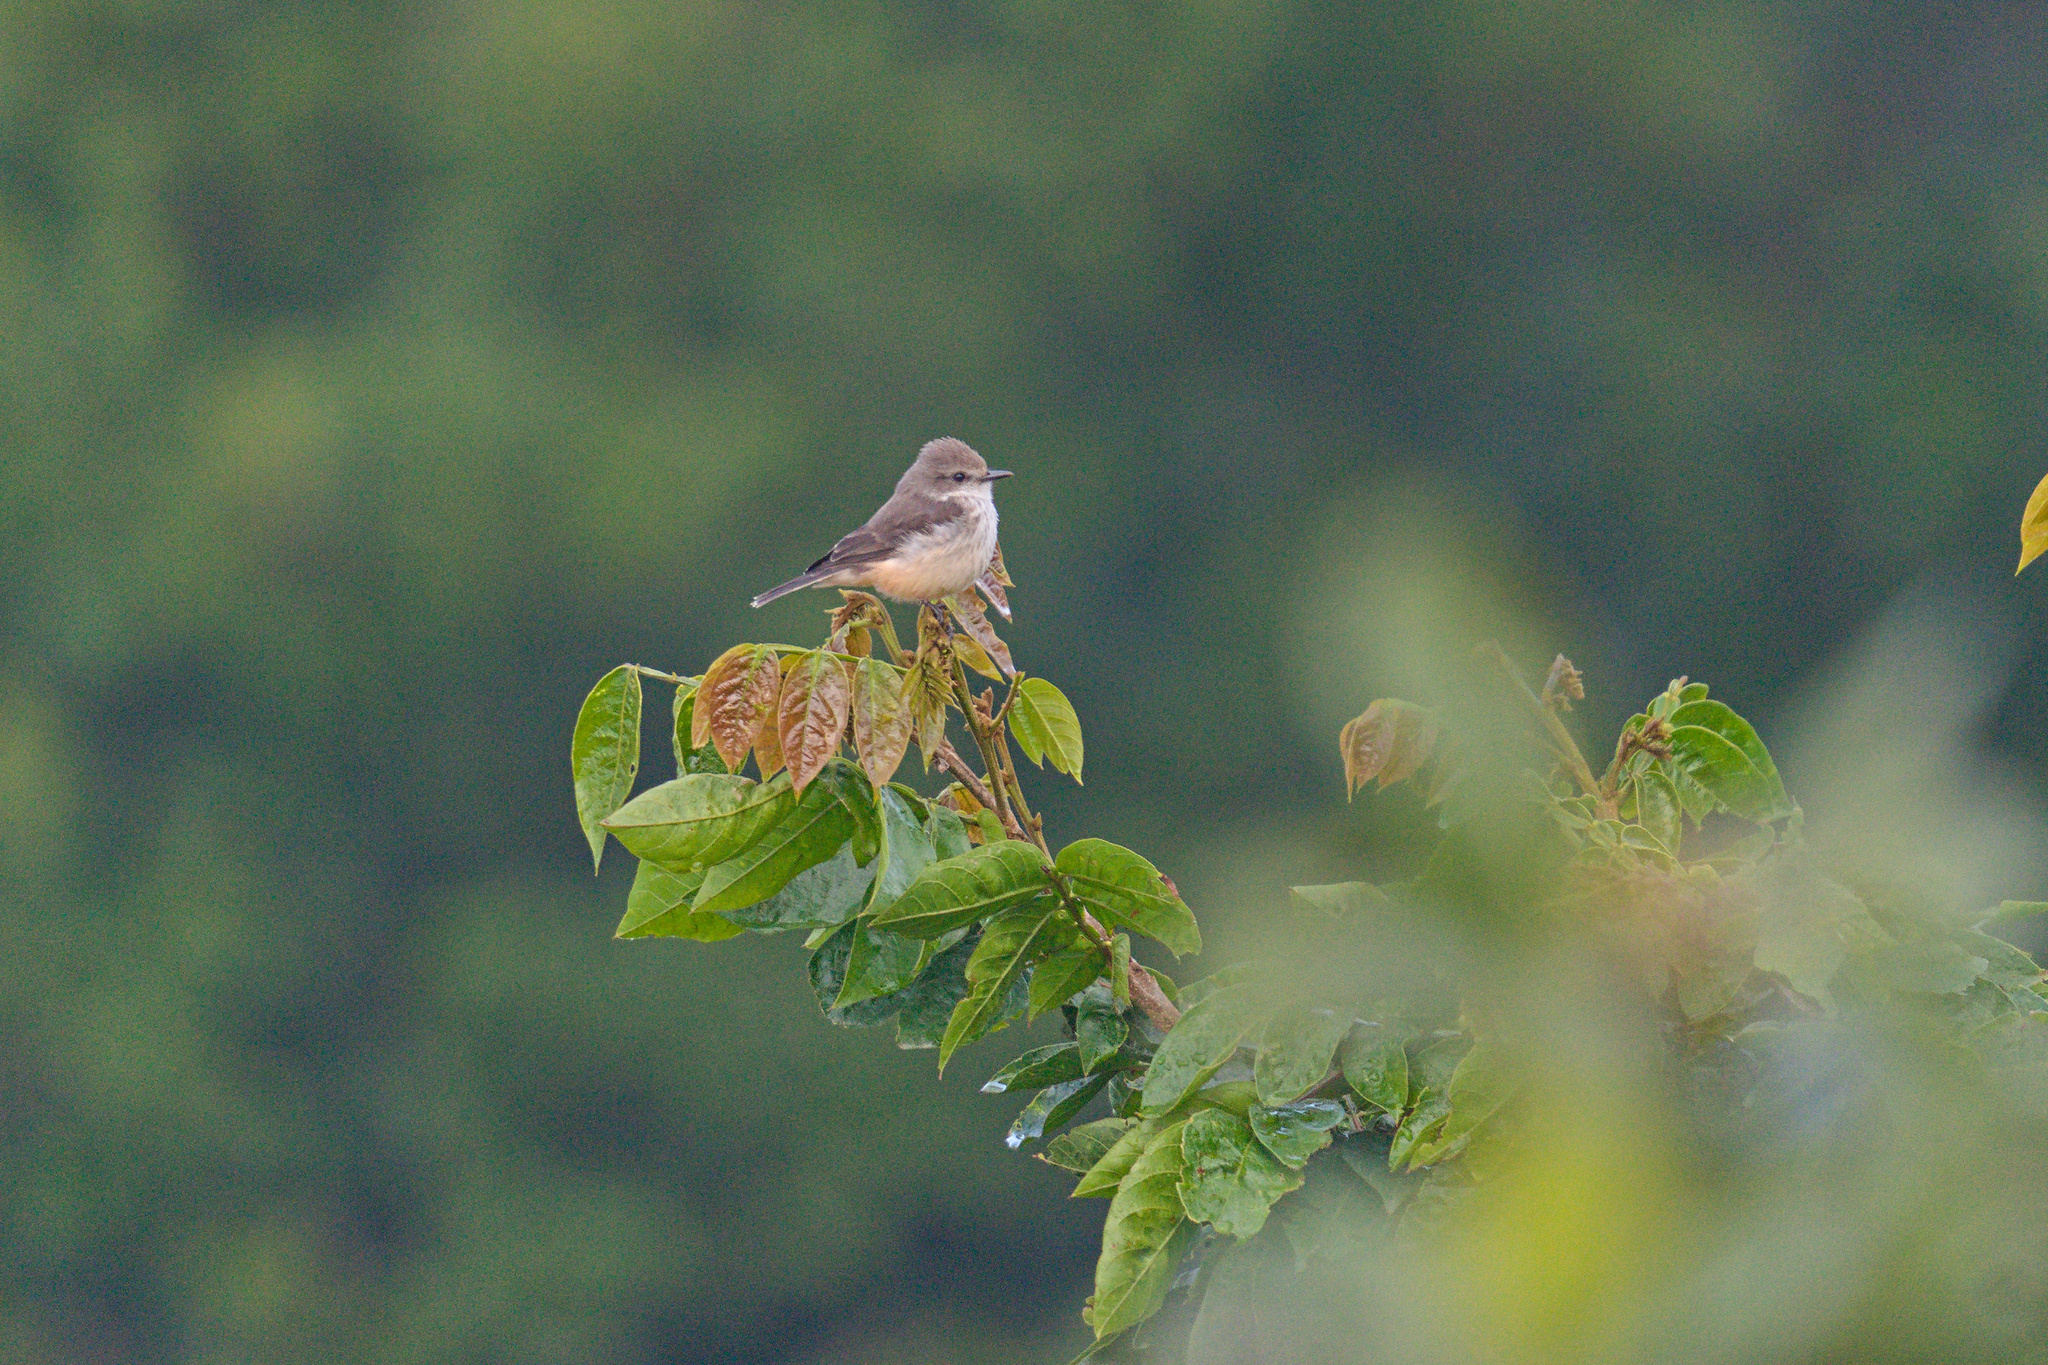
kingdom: Animalia
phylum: Chordata
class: Aves
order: Passeriformes
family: Tyrannidae
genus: Pyrocephalus
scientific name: Pyrocephalus rubinus
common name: Vermilion flycatcher
